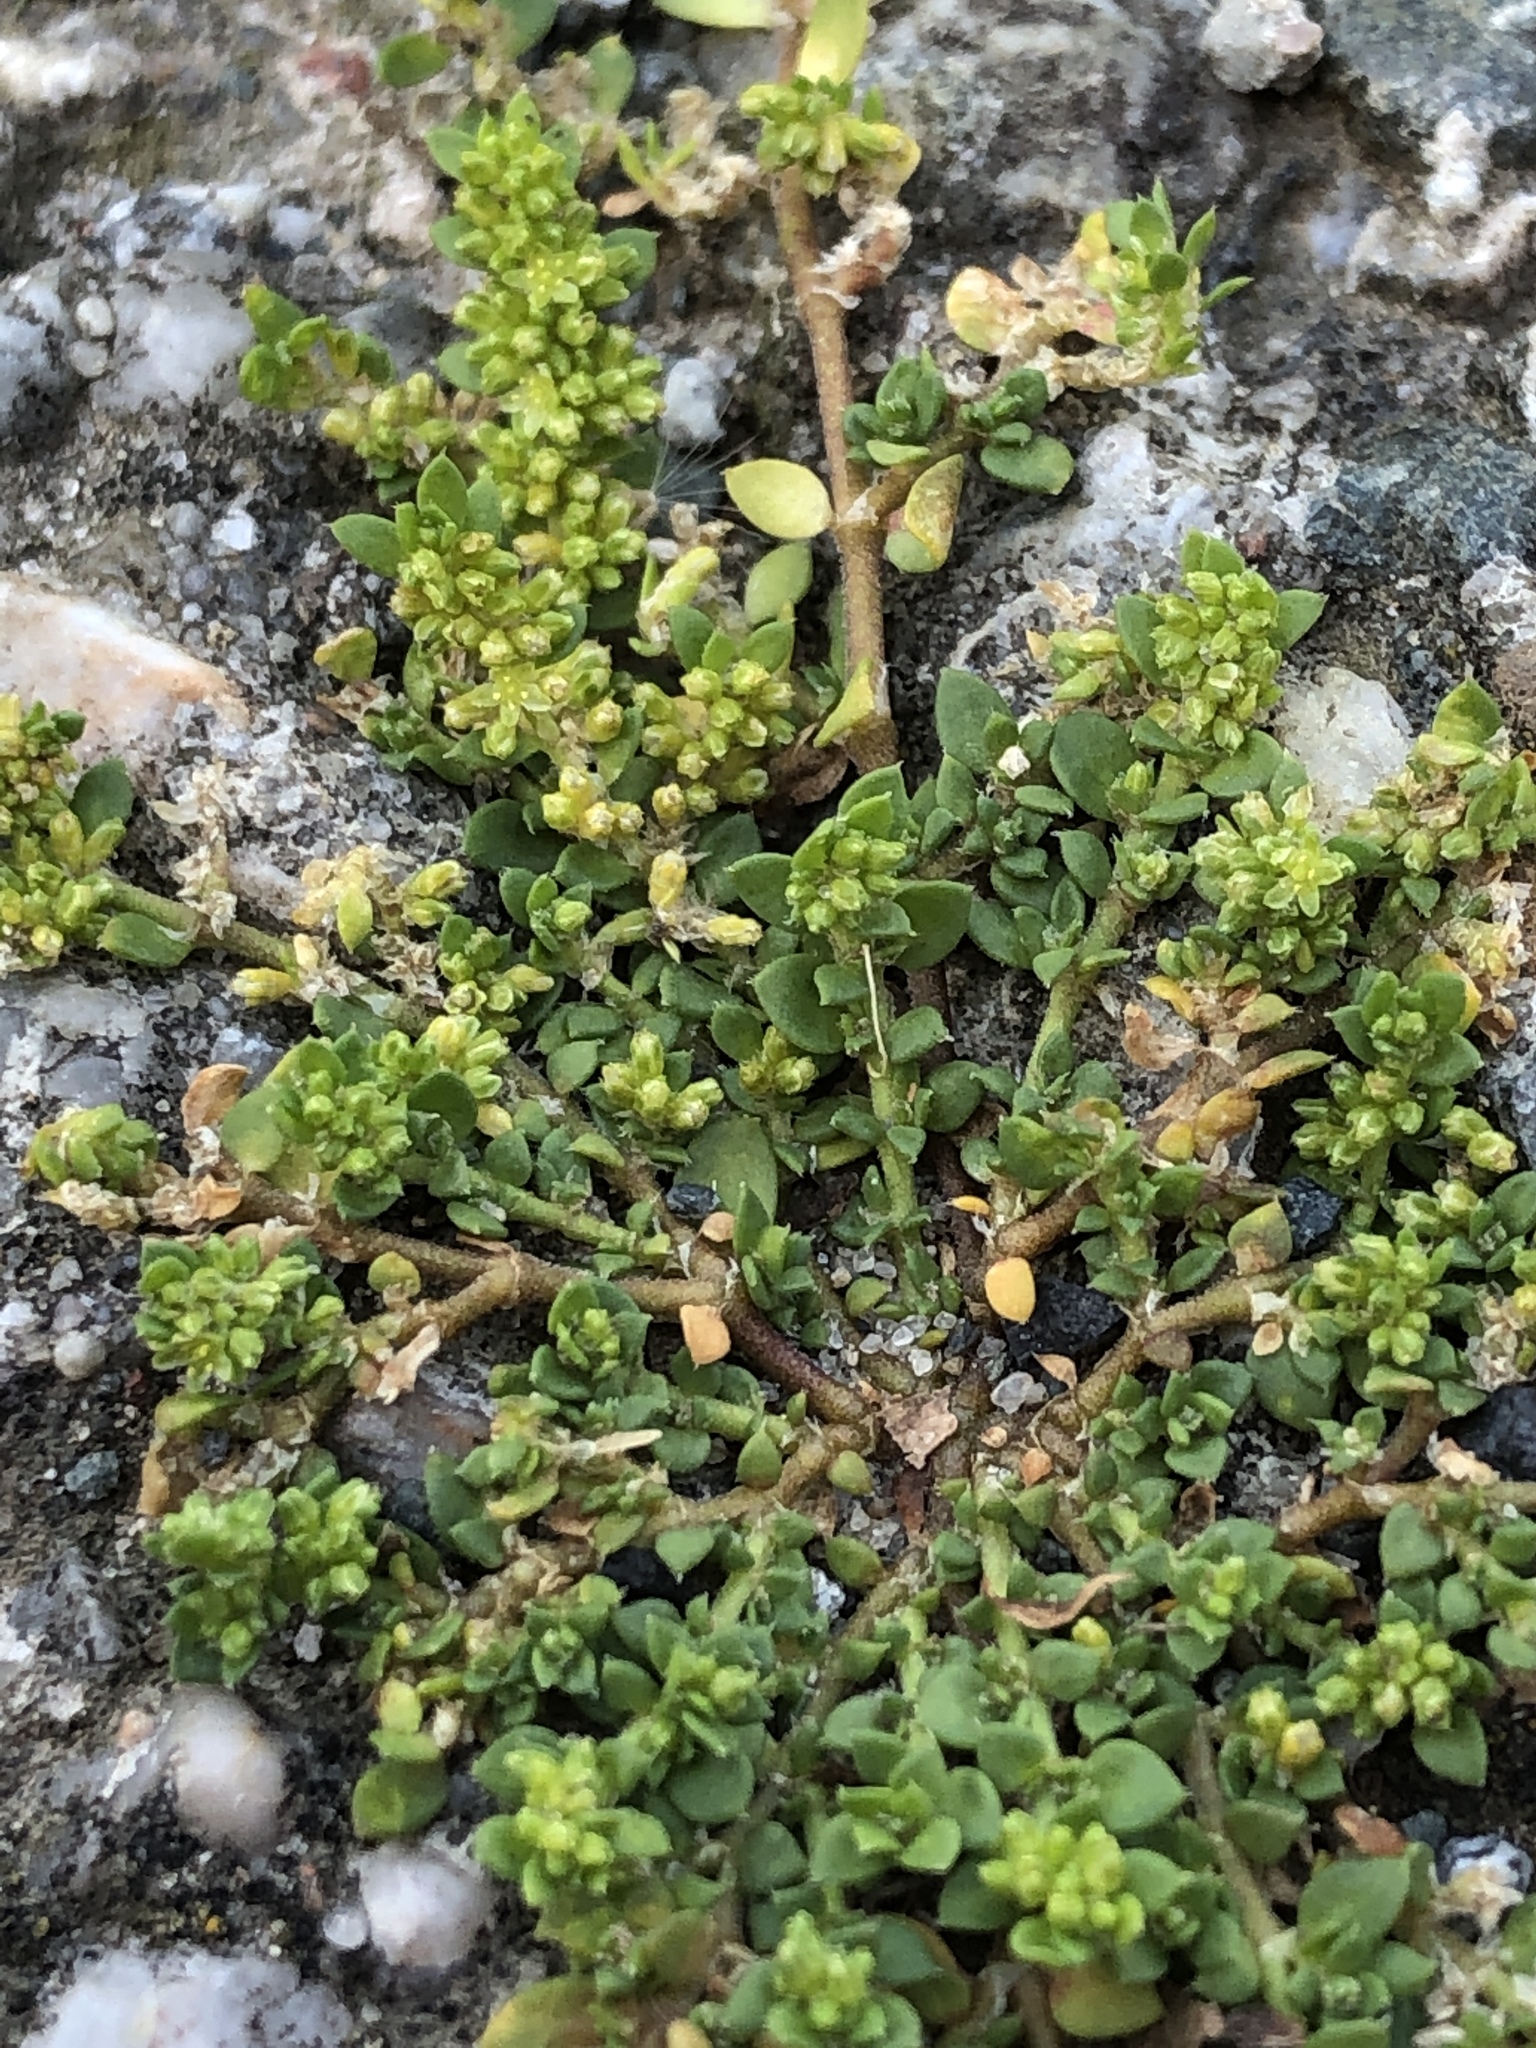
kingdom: Plantae
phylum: Tracheophyta
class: Magnoliopsida
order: Caryophyllales
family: Caryophyllaceae
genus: Herniaria
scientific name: Herniaria glabra
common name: Smooth rupturewort
